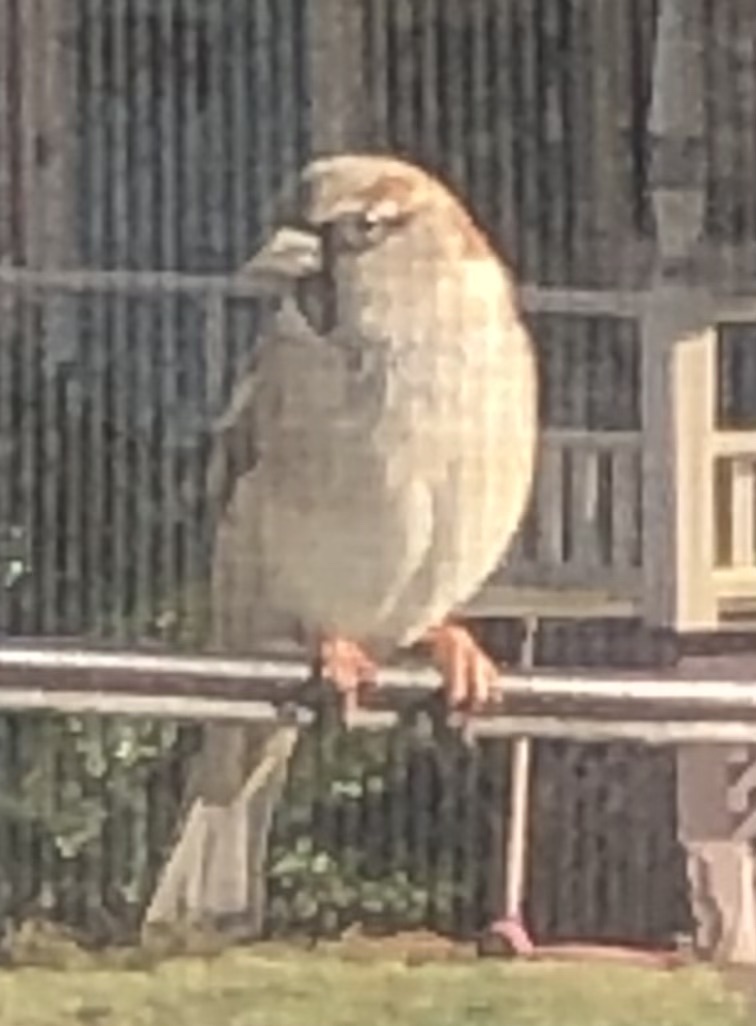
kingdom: Animalia
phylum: Chordata
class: Aves
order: Passeriformes
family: Passeridae
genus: Passer
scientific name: Passer domesticus
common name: House sparrow
